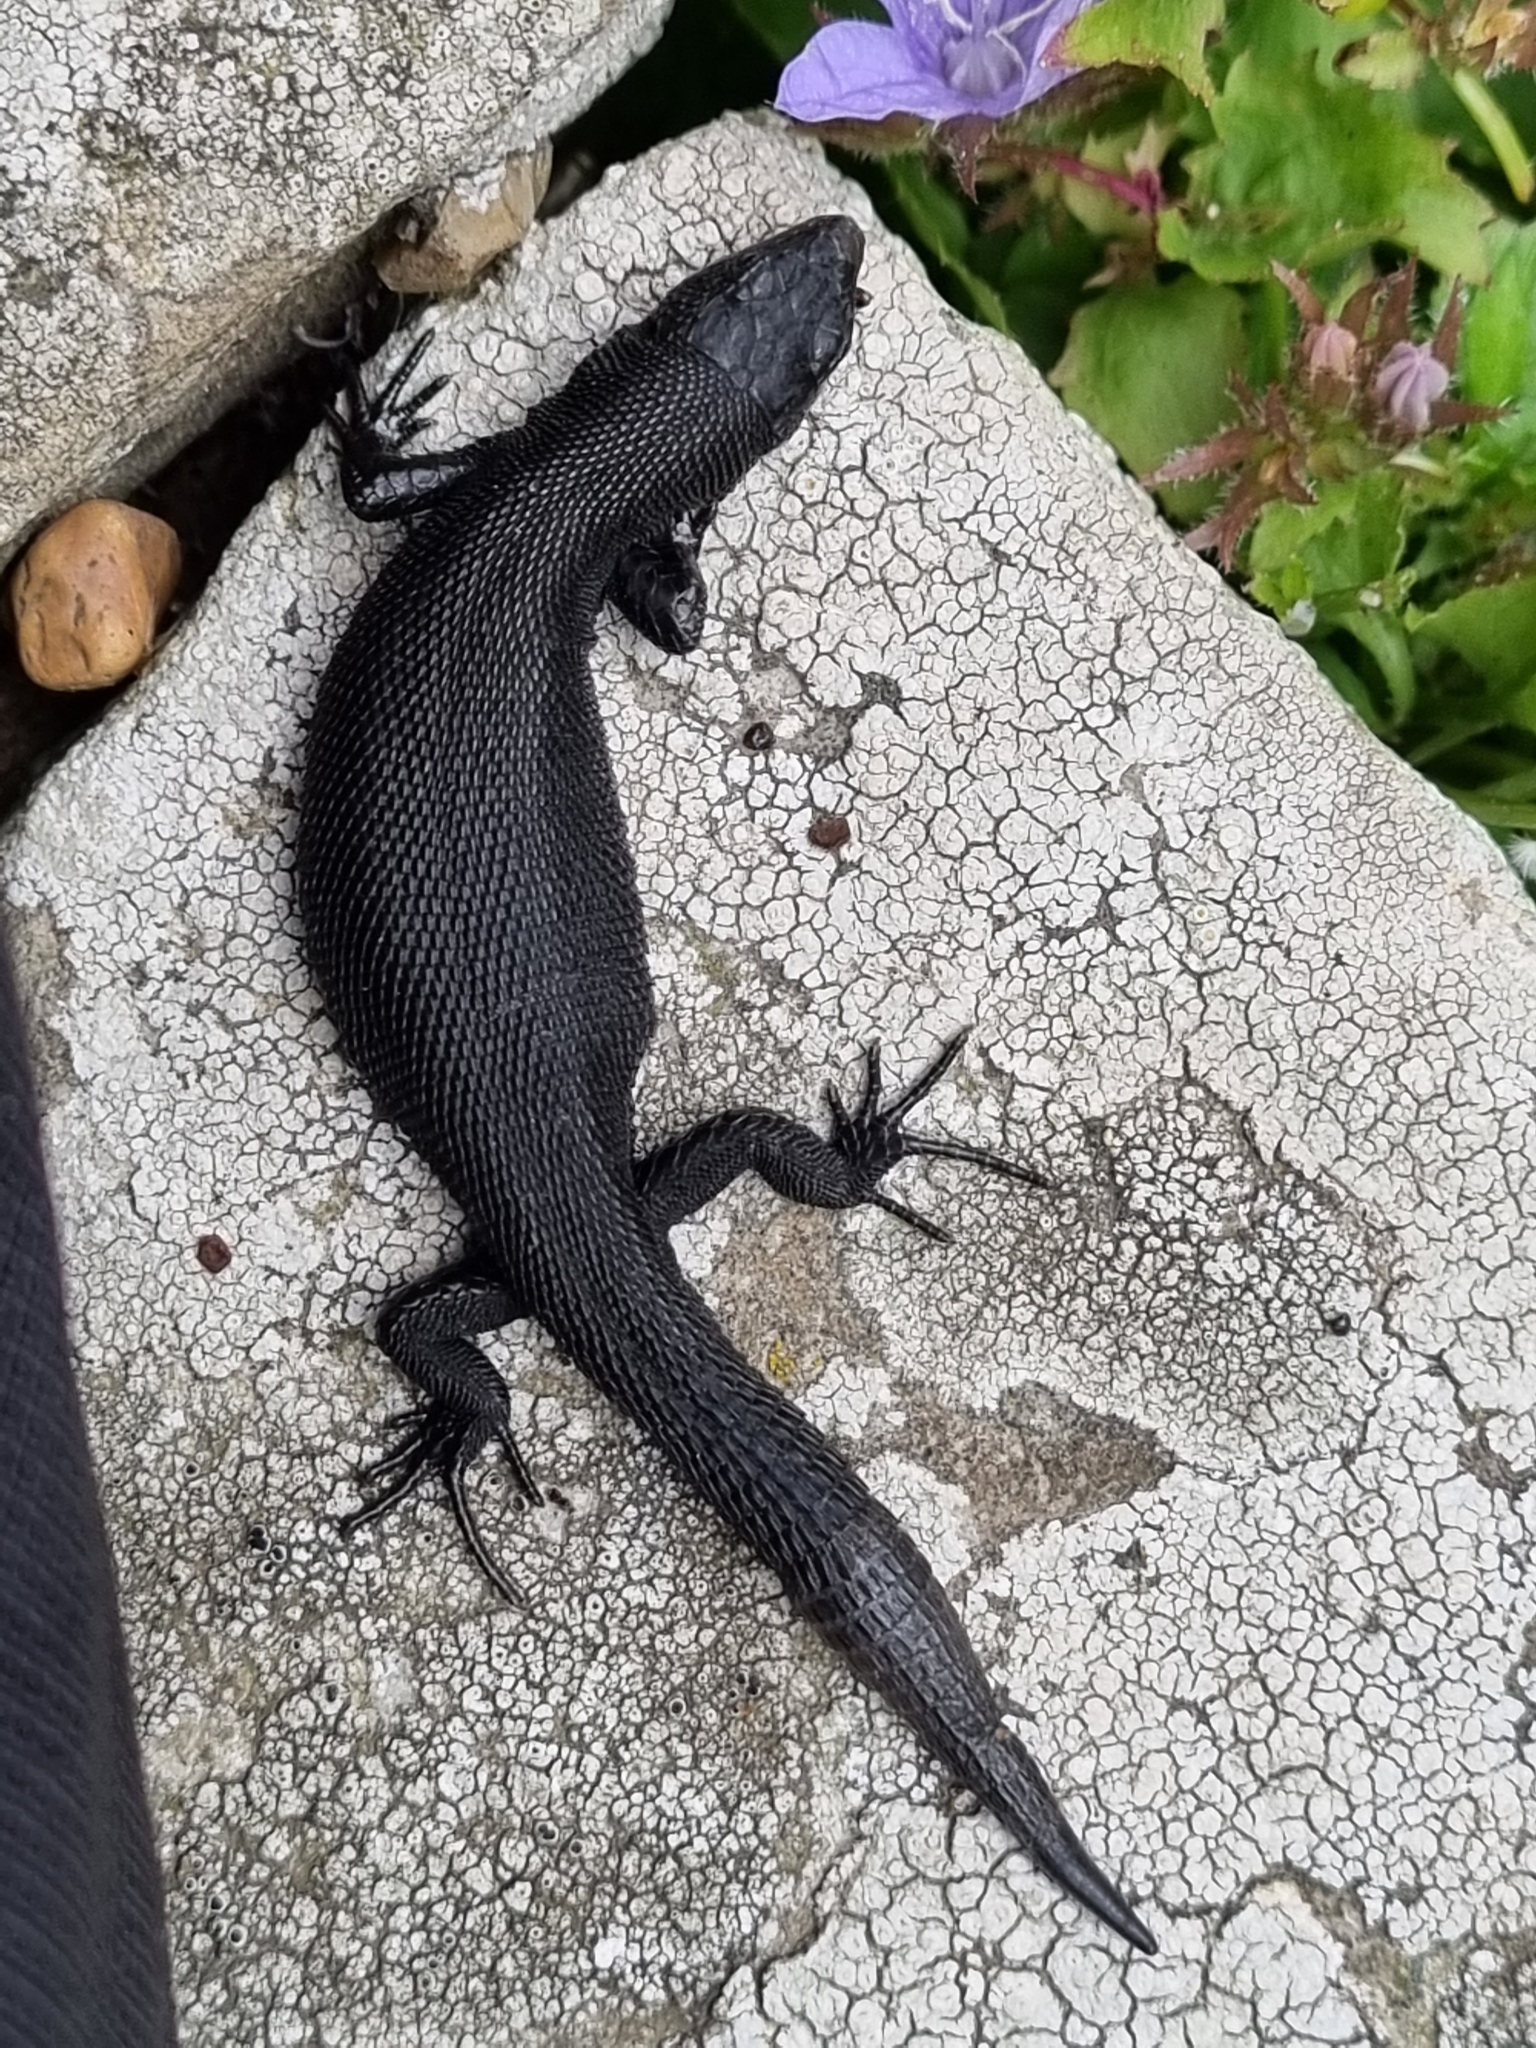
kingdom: Animalia
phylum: Chordata
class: Squamata
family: Lacertidae
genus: Zootoca
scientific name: Zootoca vivipara
